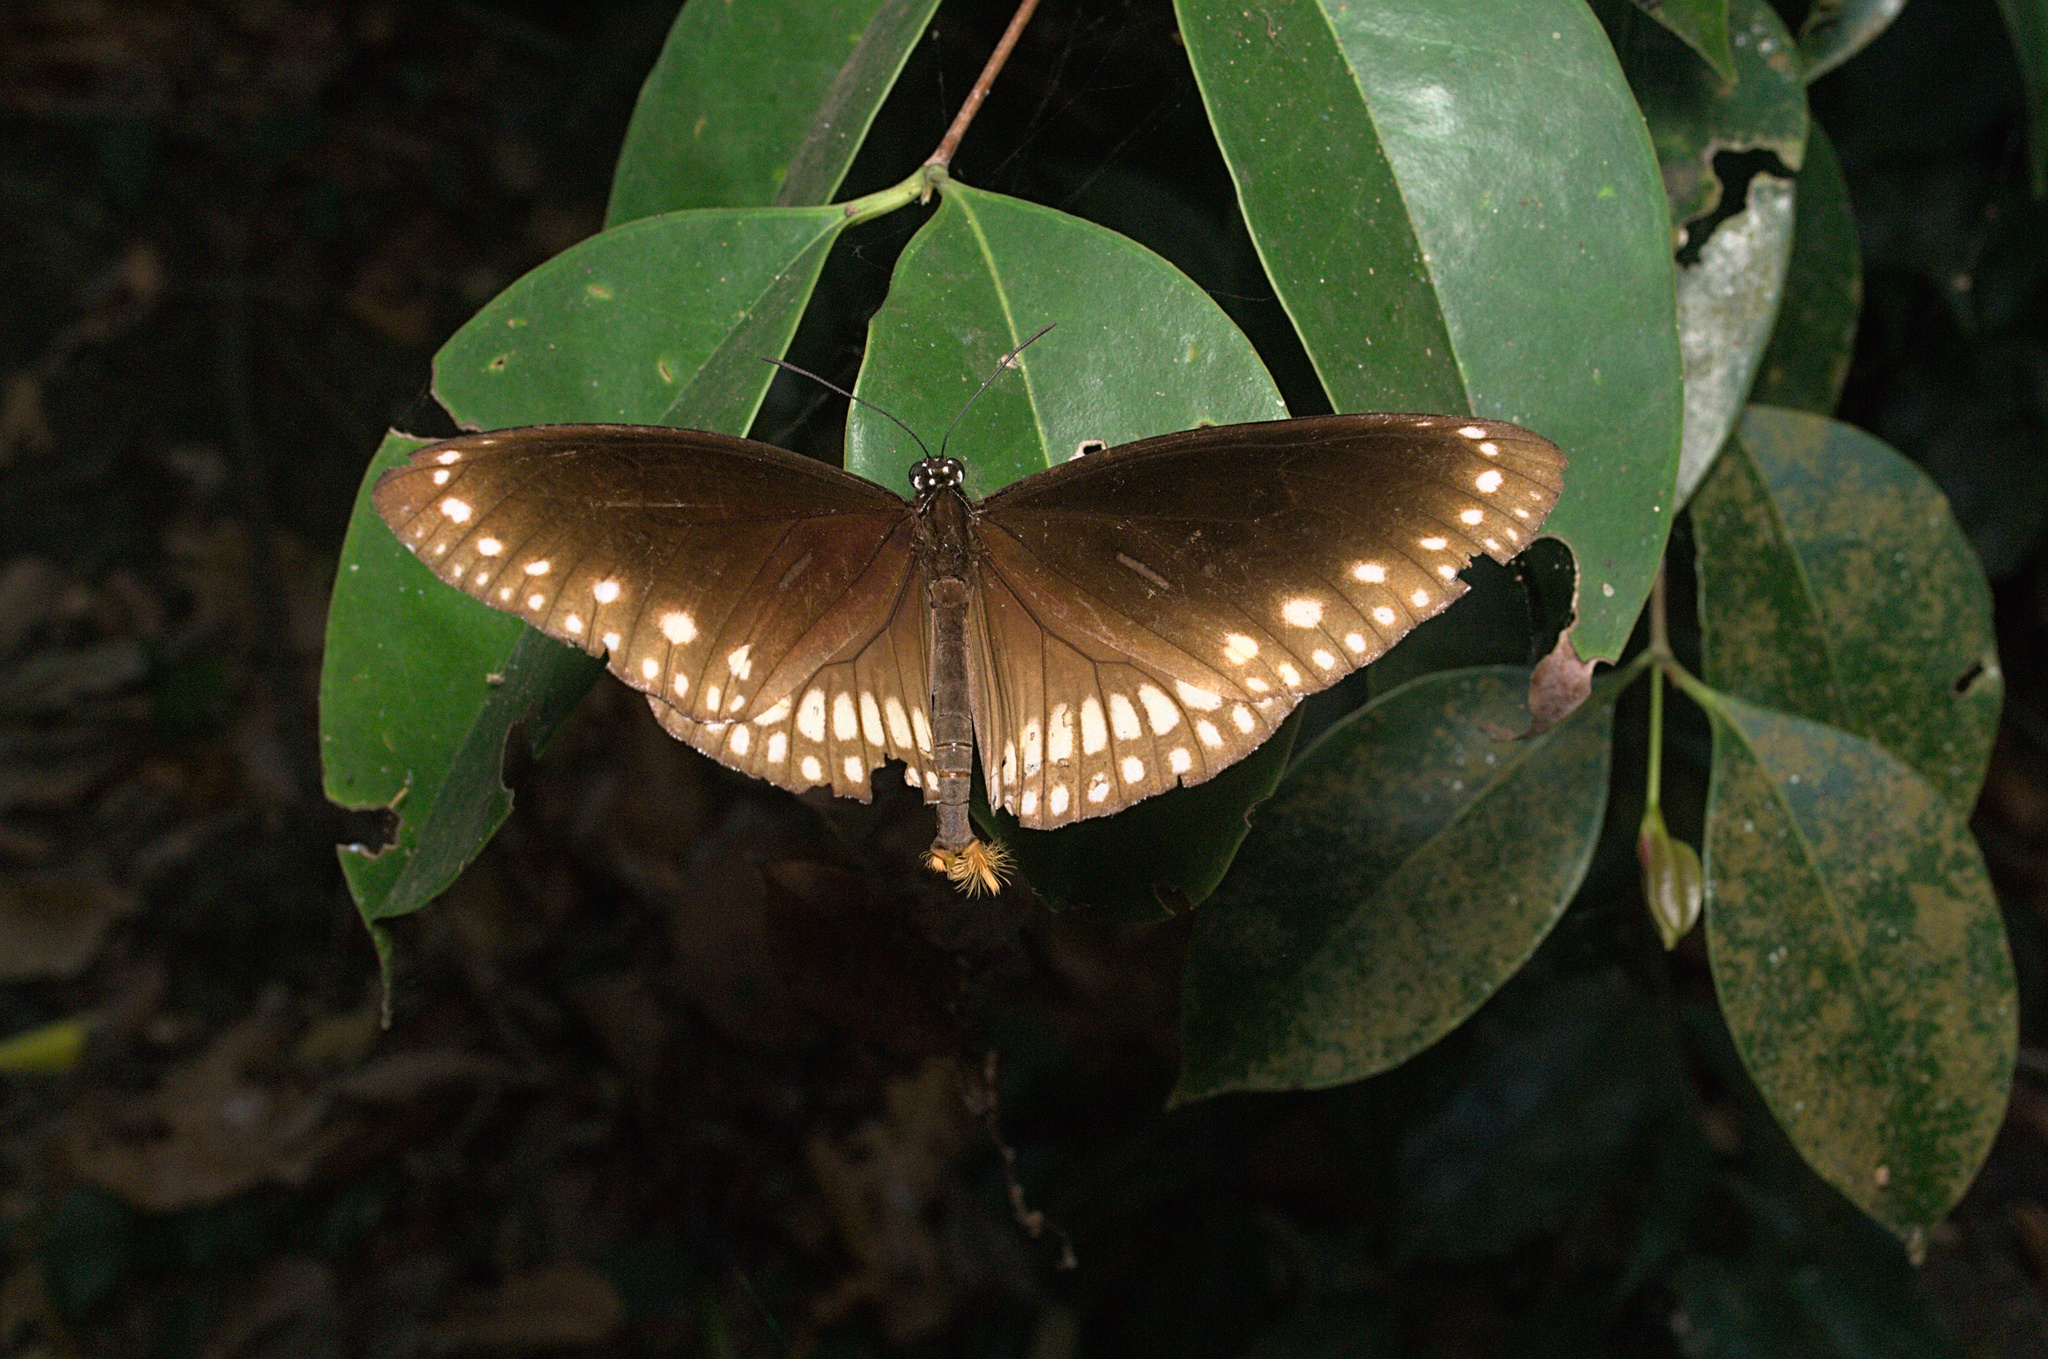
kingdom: Animalia
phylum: Arthropoda
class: Insecta
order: Lepidoptera
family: Nymphalidae
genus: Euploea
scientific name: Euploea core
